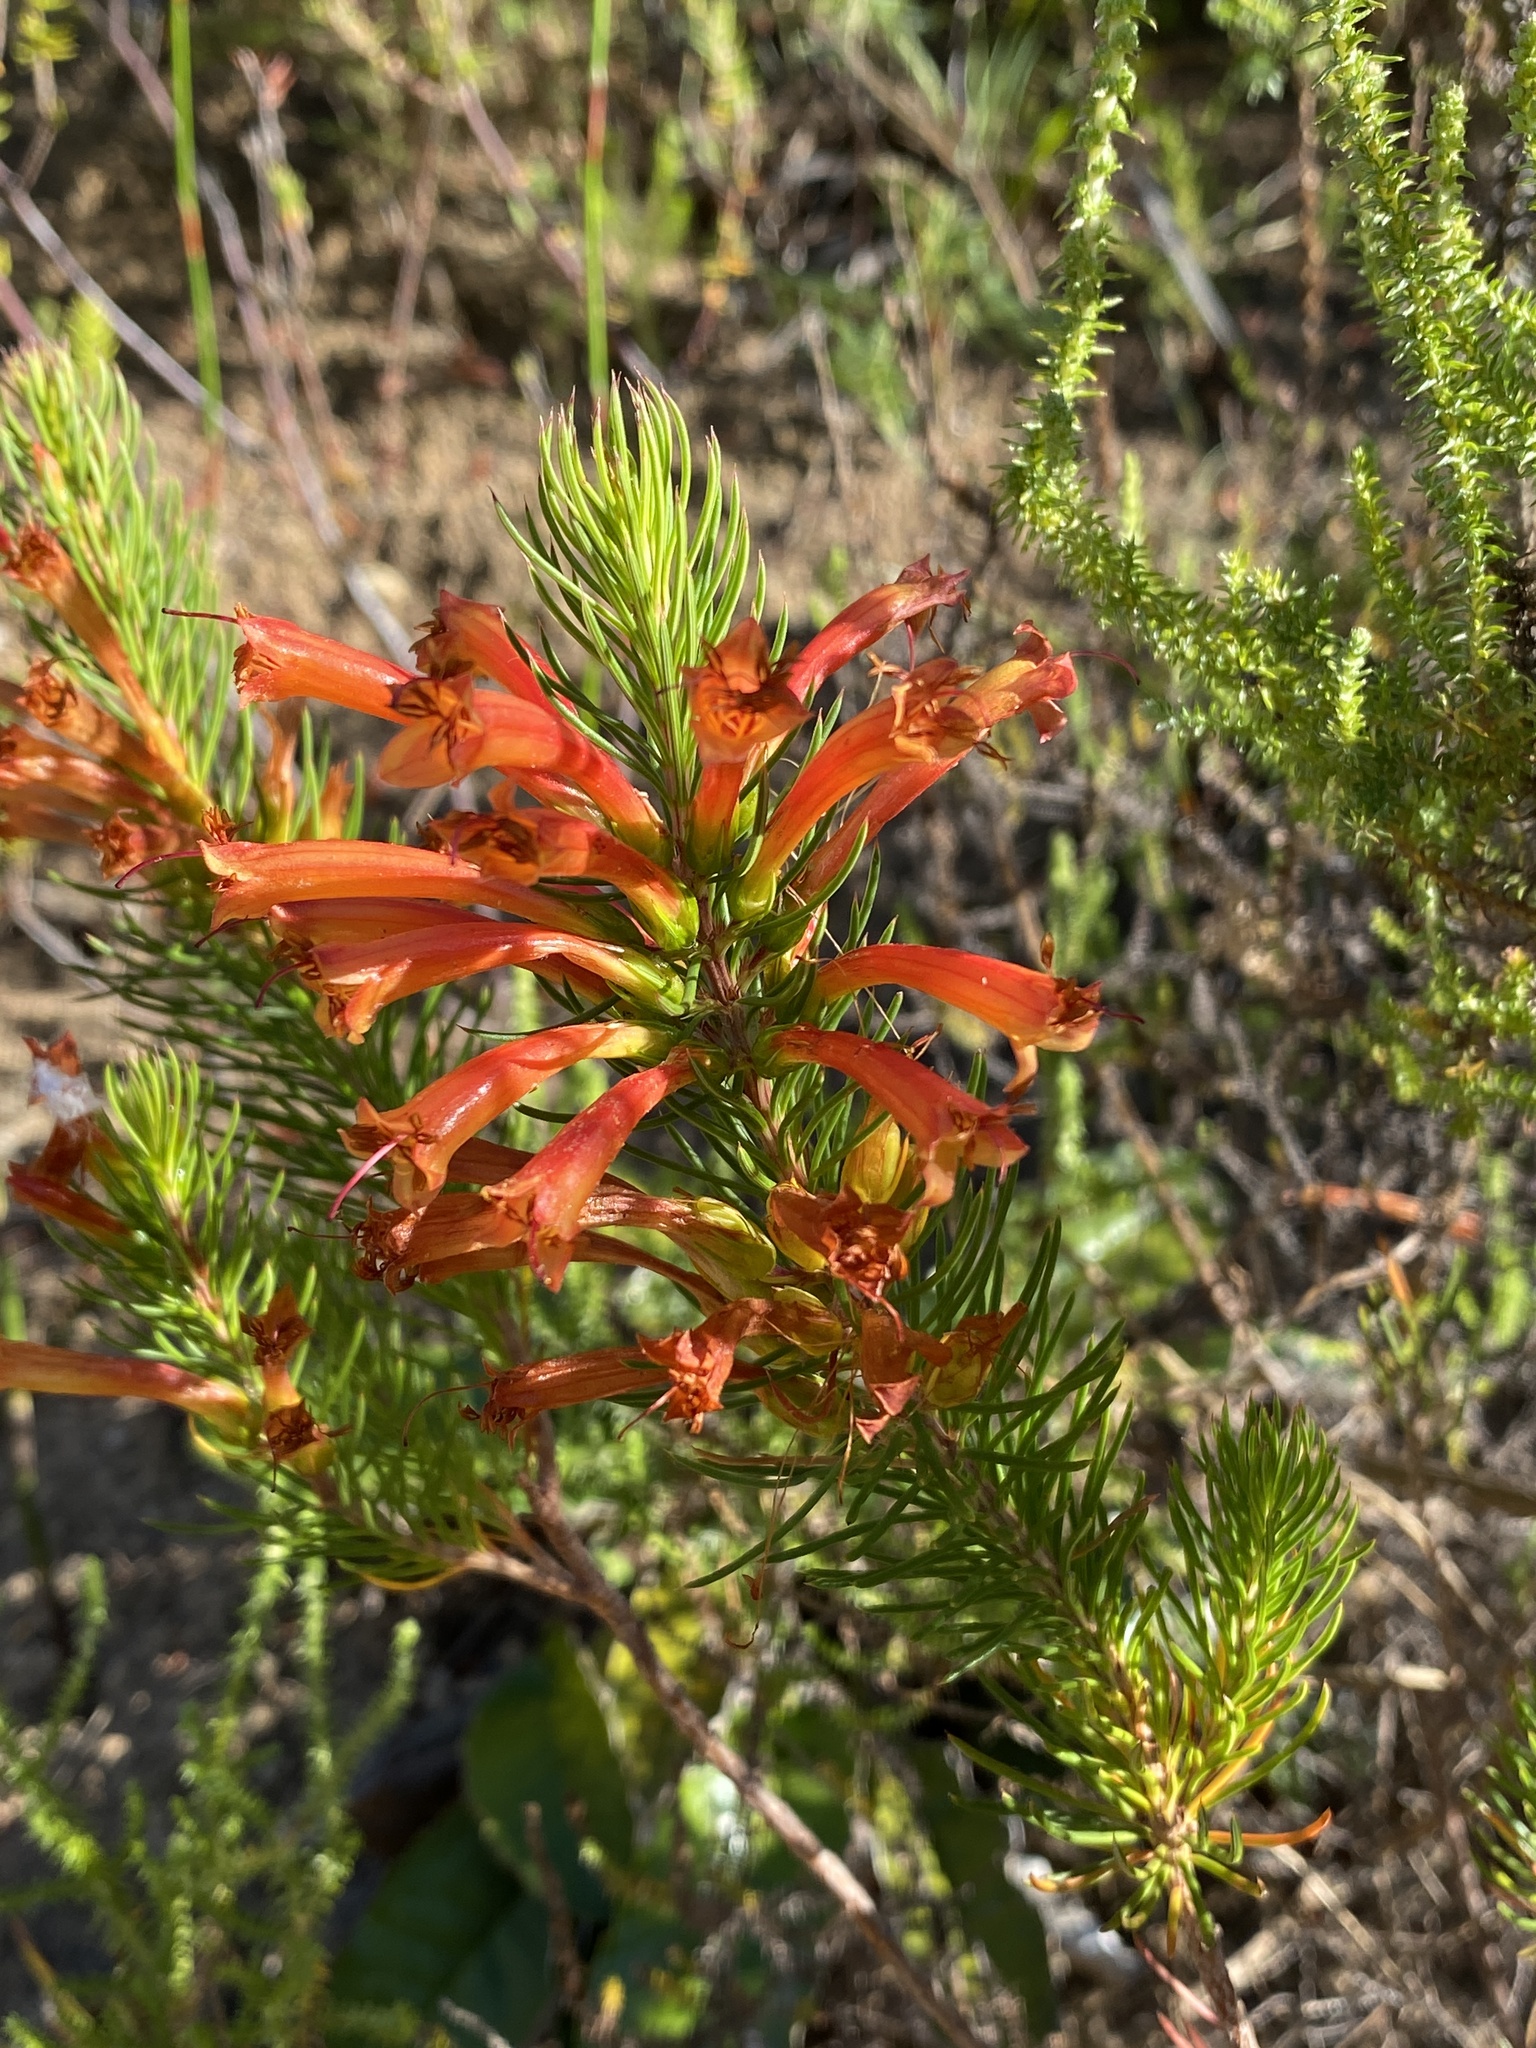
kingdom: Plantae
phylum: Tracheophyta
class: Magnoliopsida
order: Ericales
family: Ericaceae
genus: Erica
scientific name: Erica grandiflora
